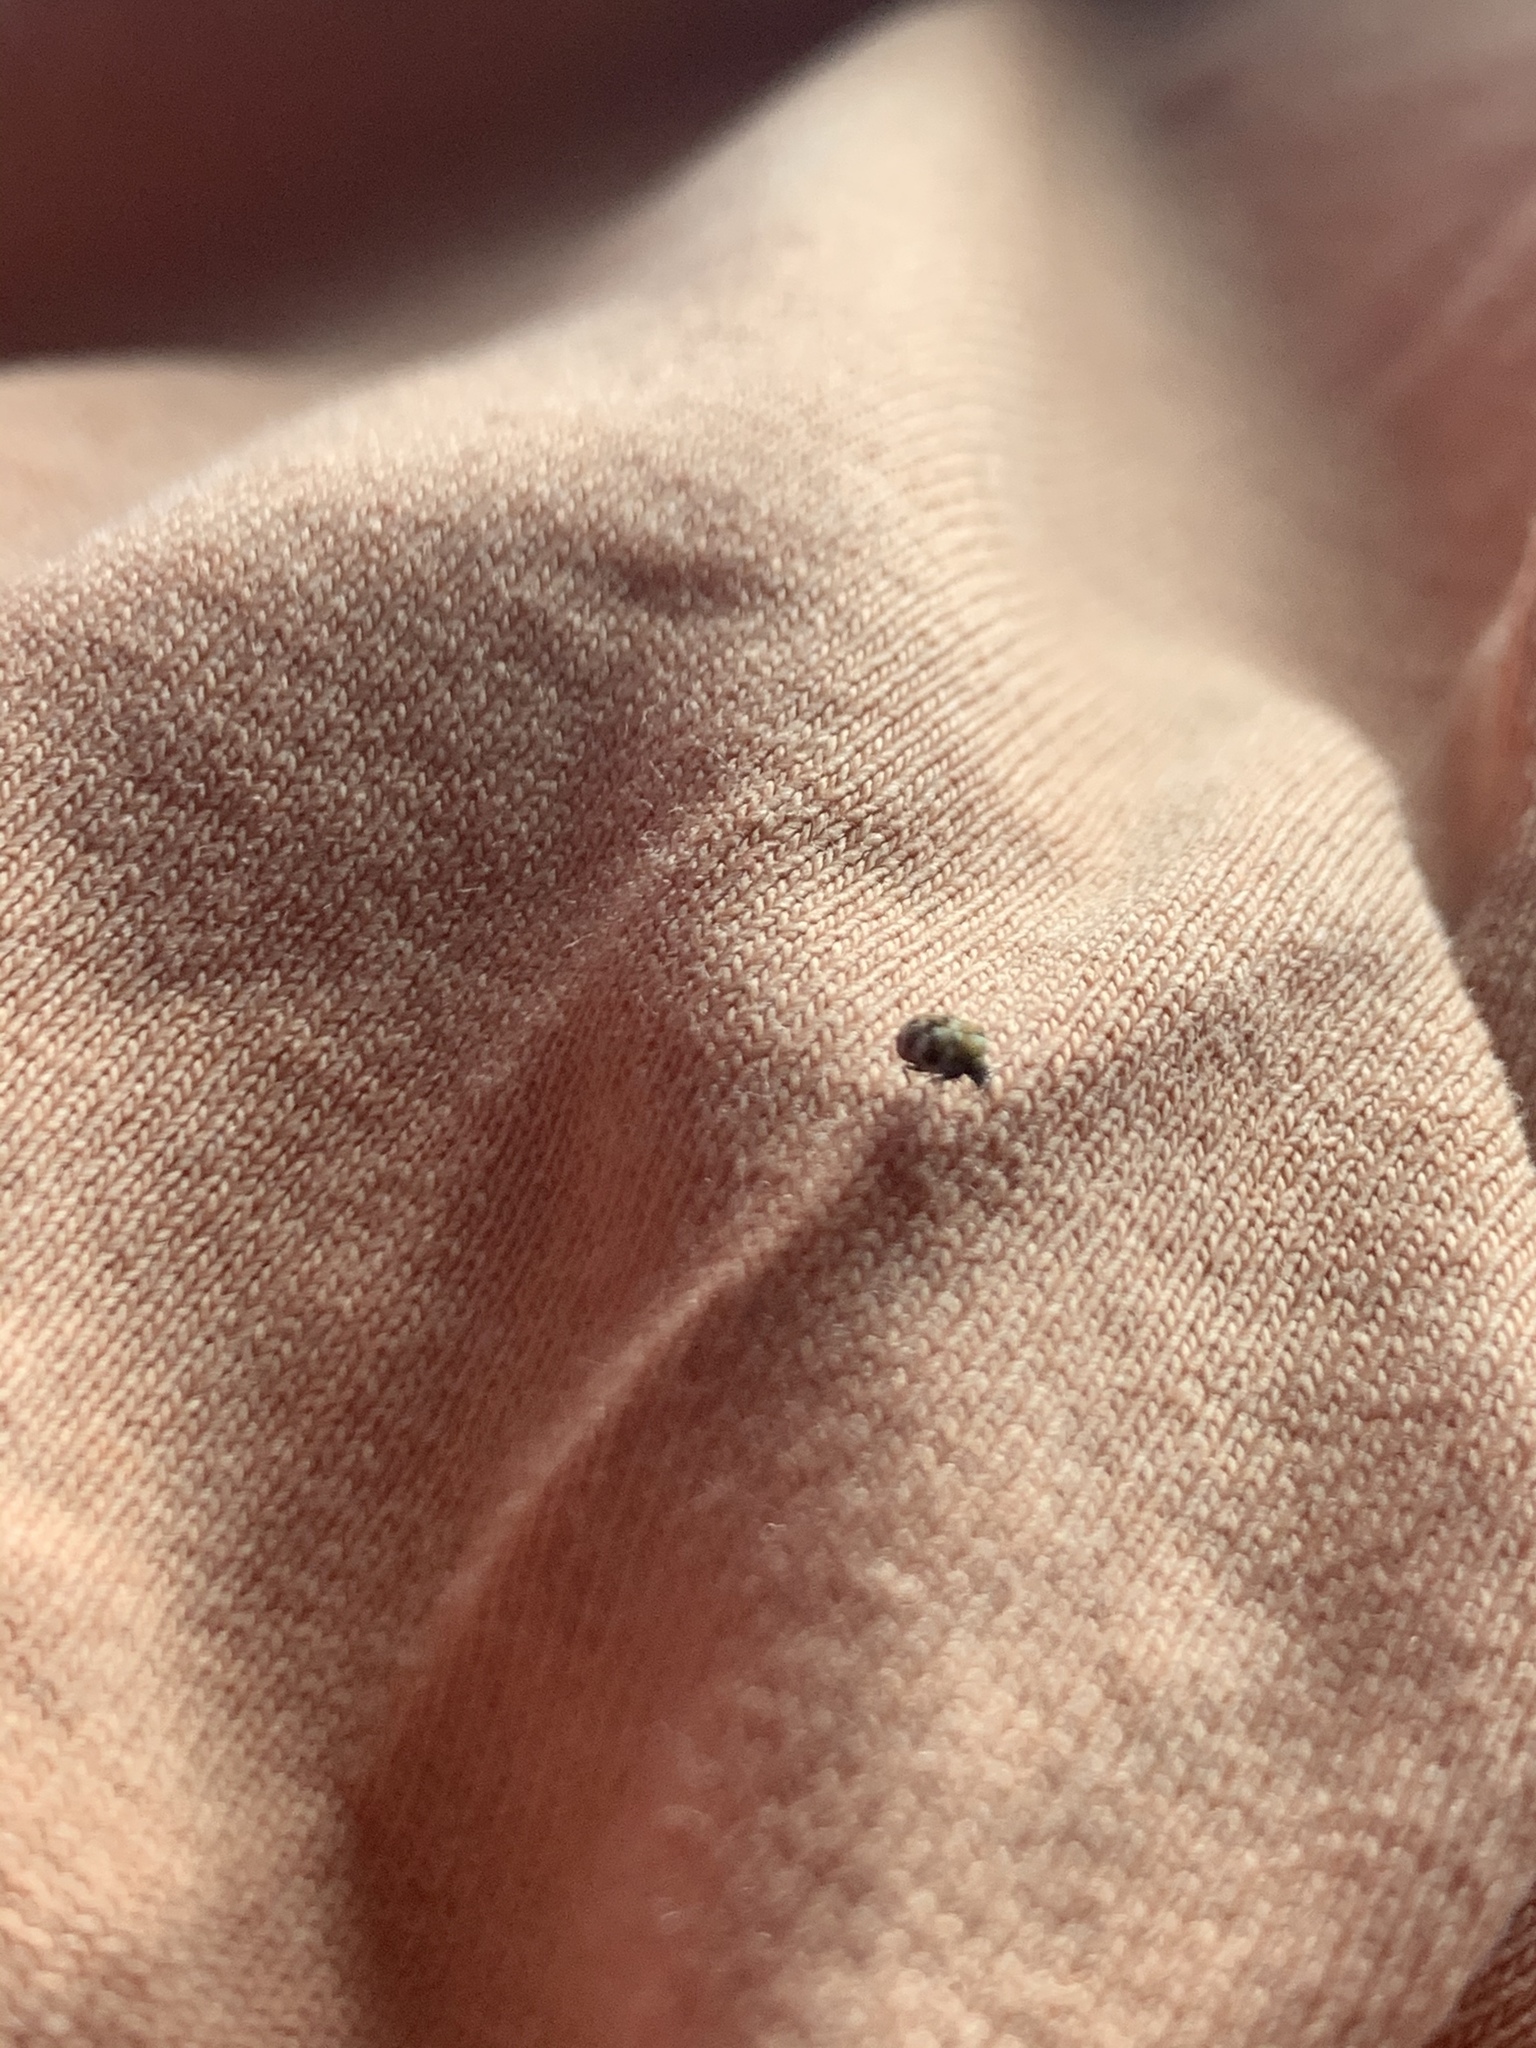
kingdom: Animalia
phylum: Arthropoda
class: Insecta
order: Coleoptera
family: Dermestidae
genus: Anthrenus
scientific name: Anthrenus verbasci
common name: Varied carpet beetle
